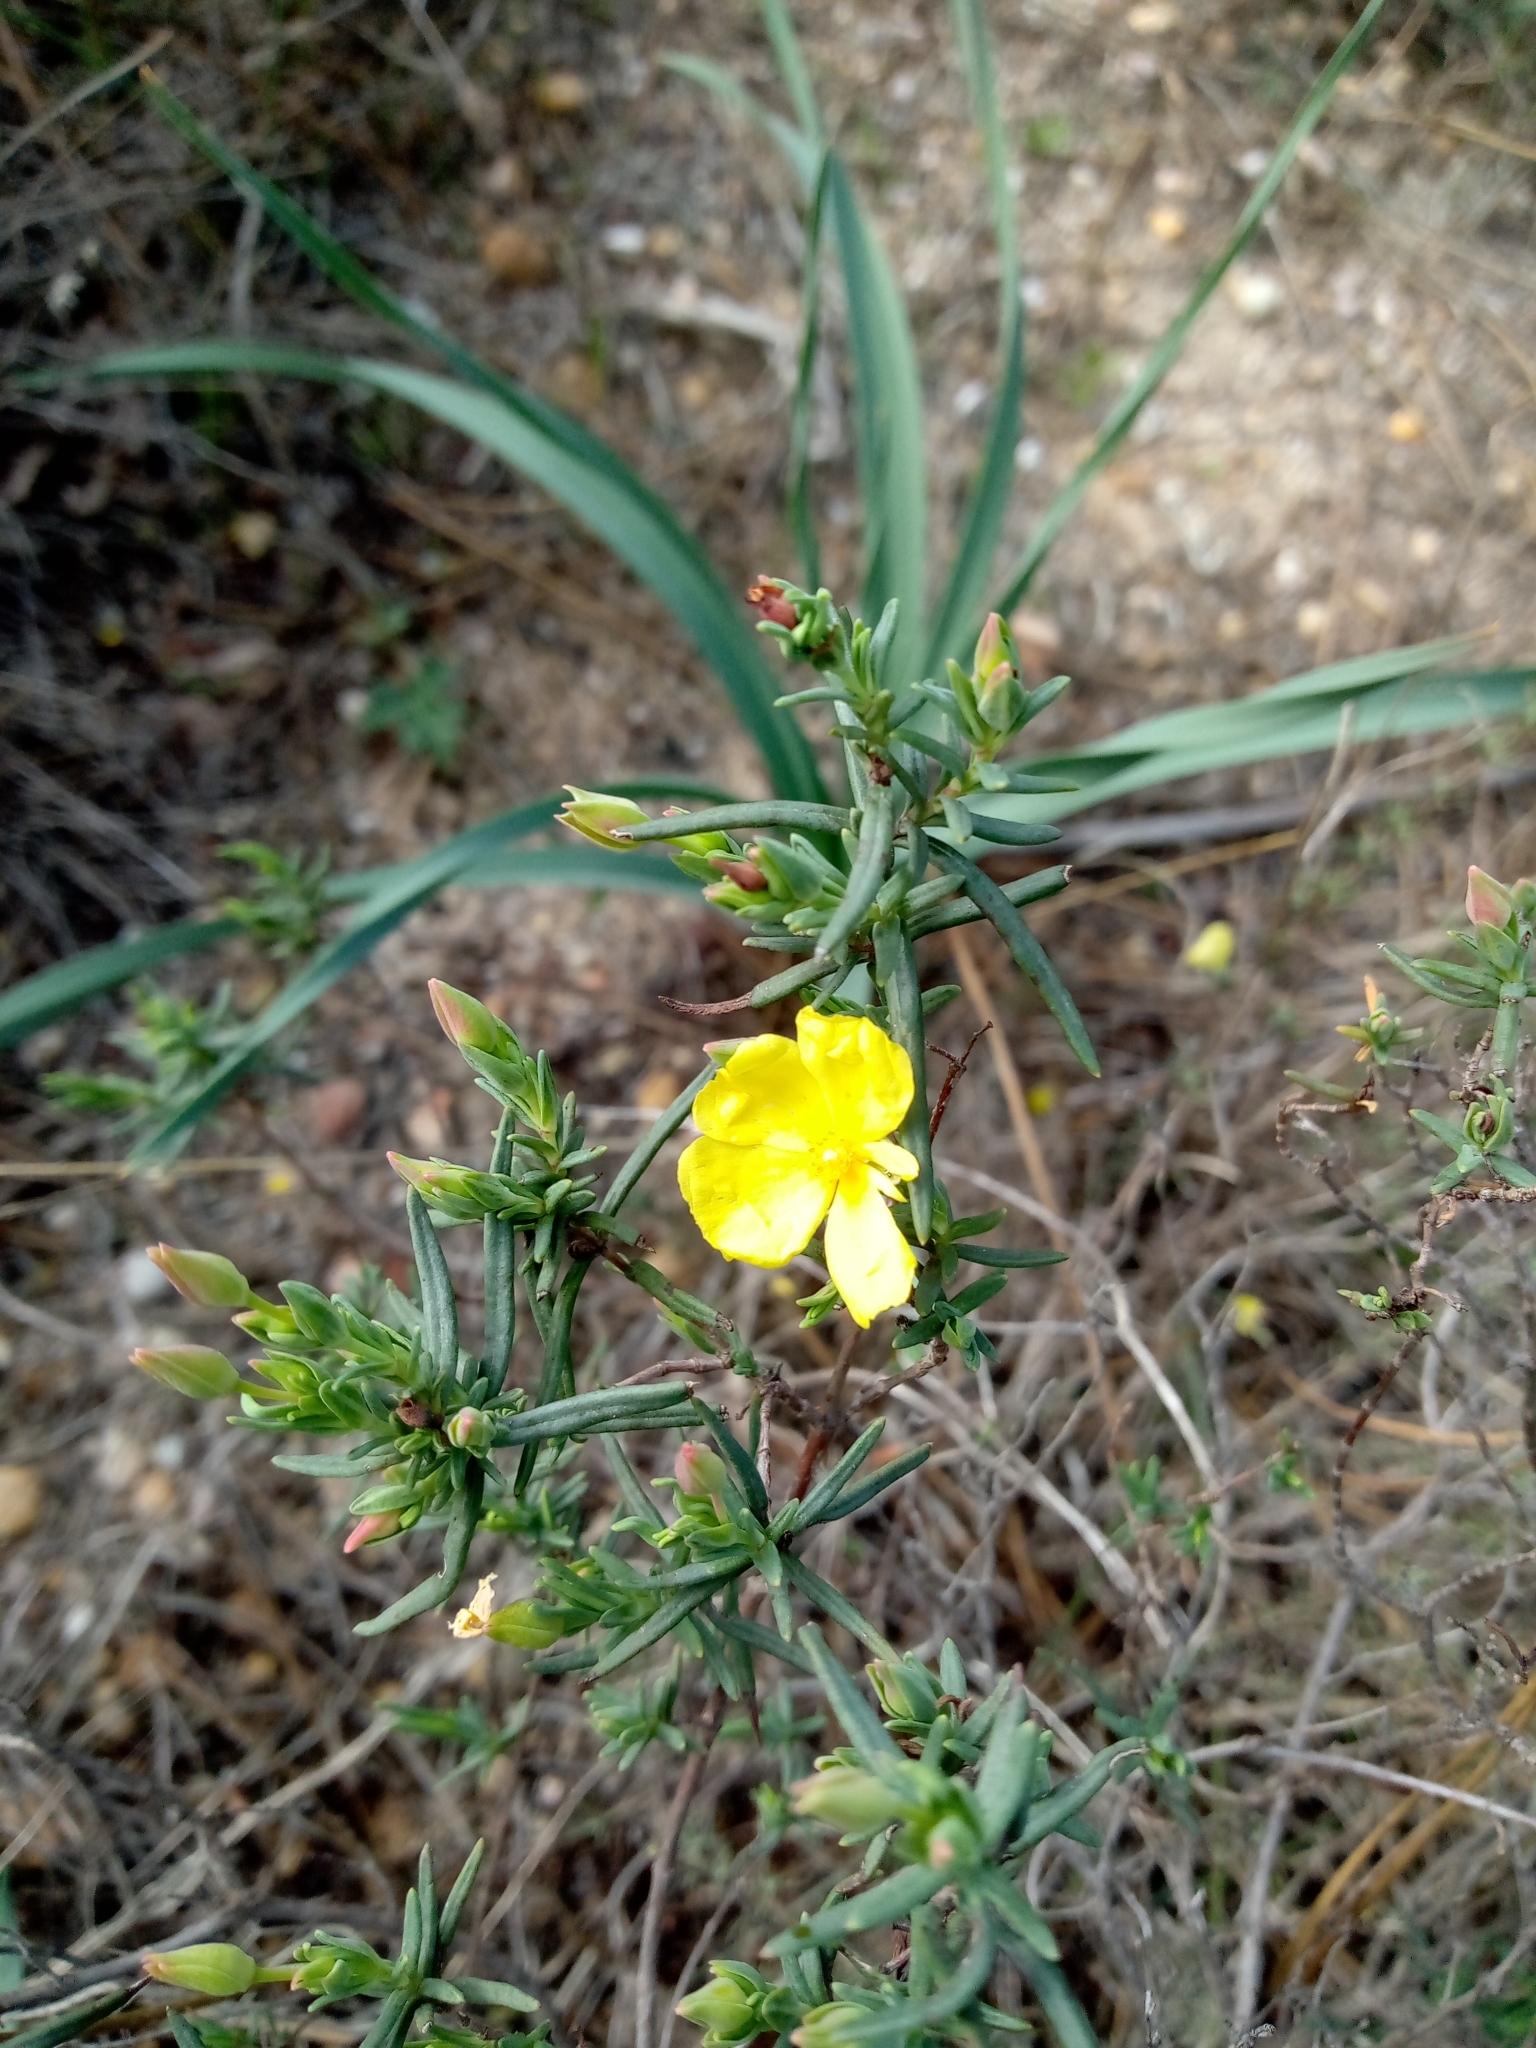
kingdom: Plantae
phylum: Tracheophyta
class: Magnoliopsida
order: Malvales
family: Cistaceae
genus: Halimium
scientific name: Halimium calycinum
